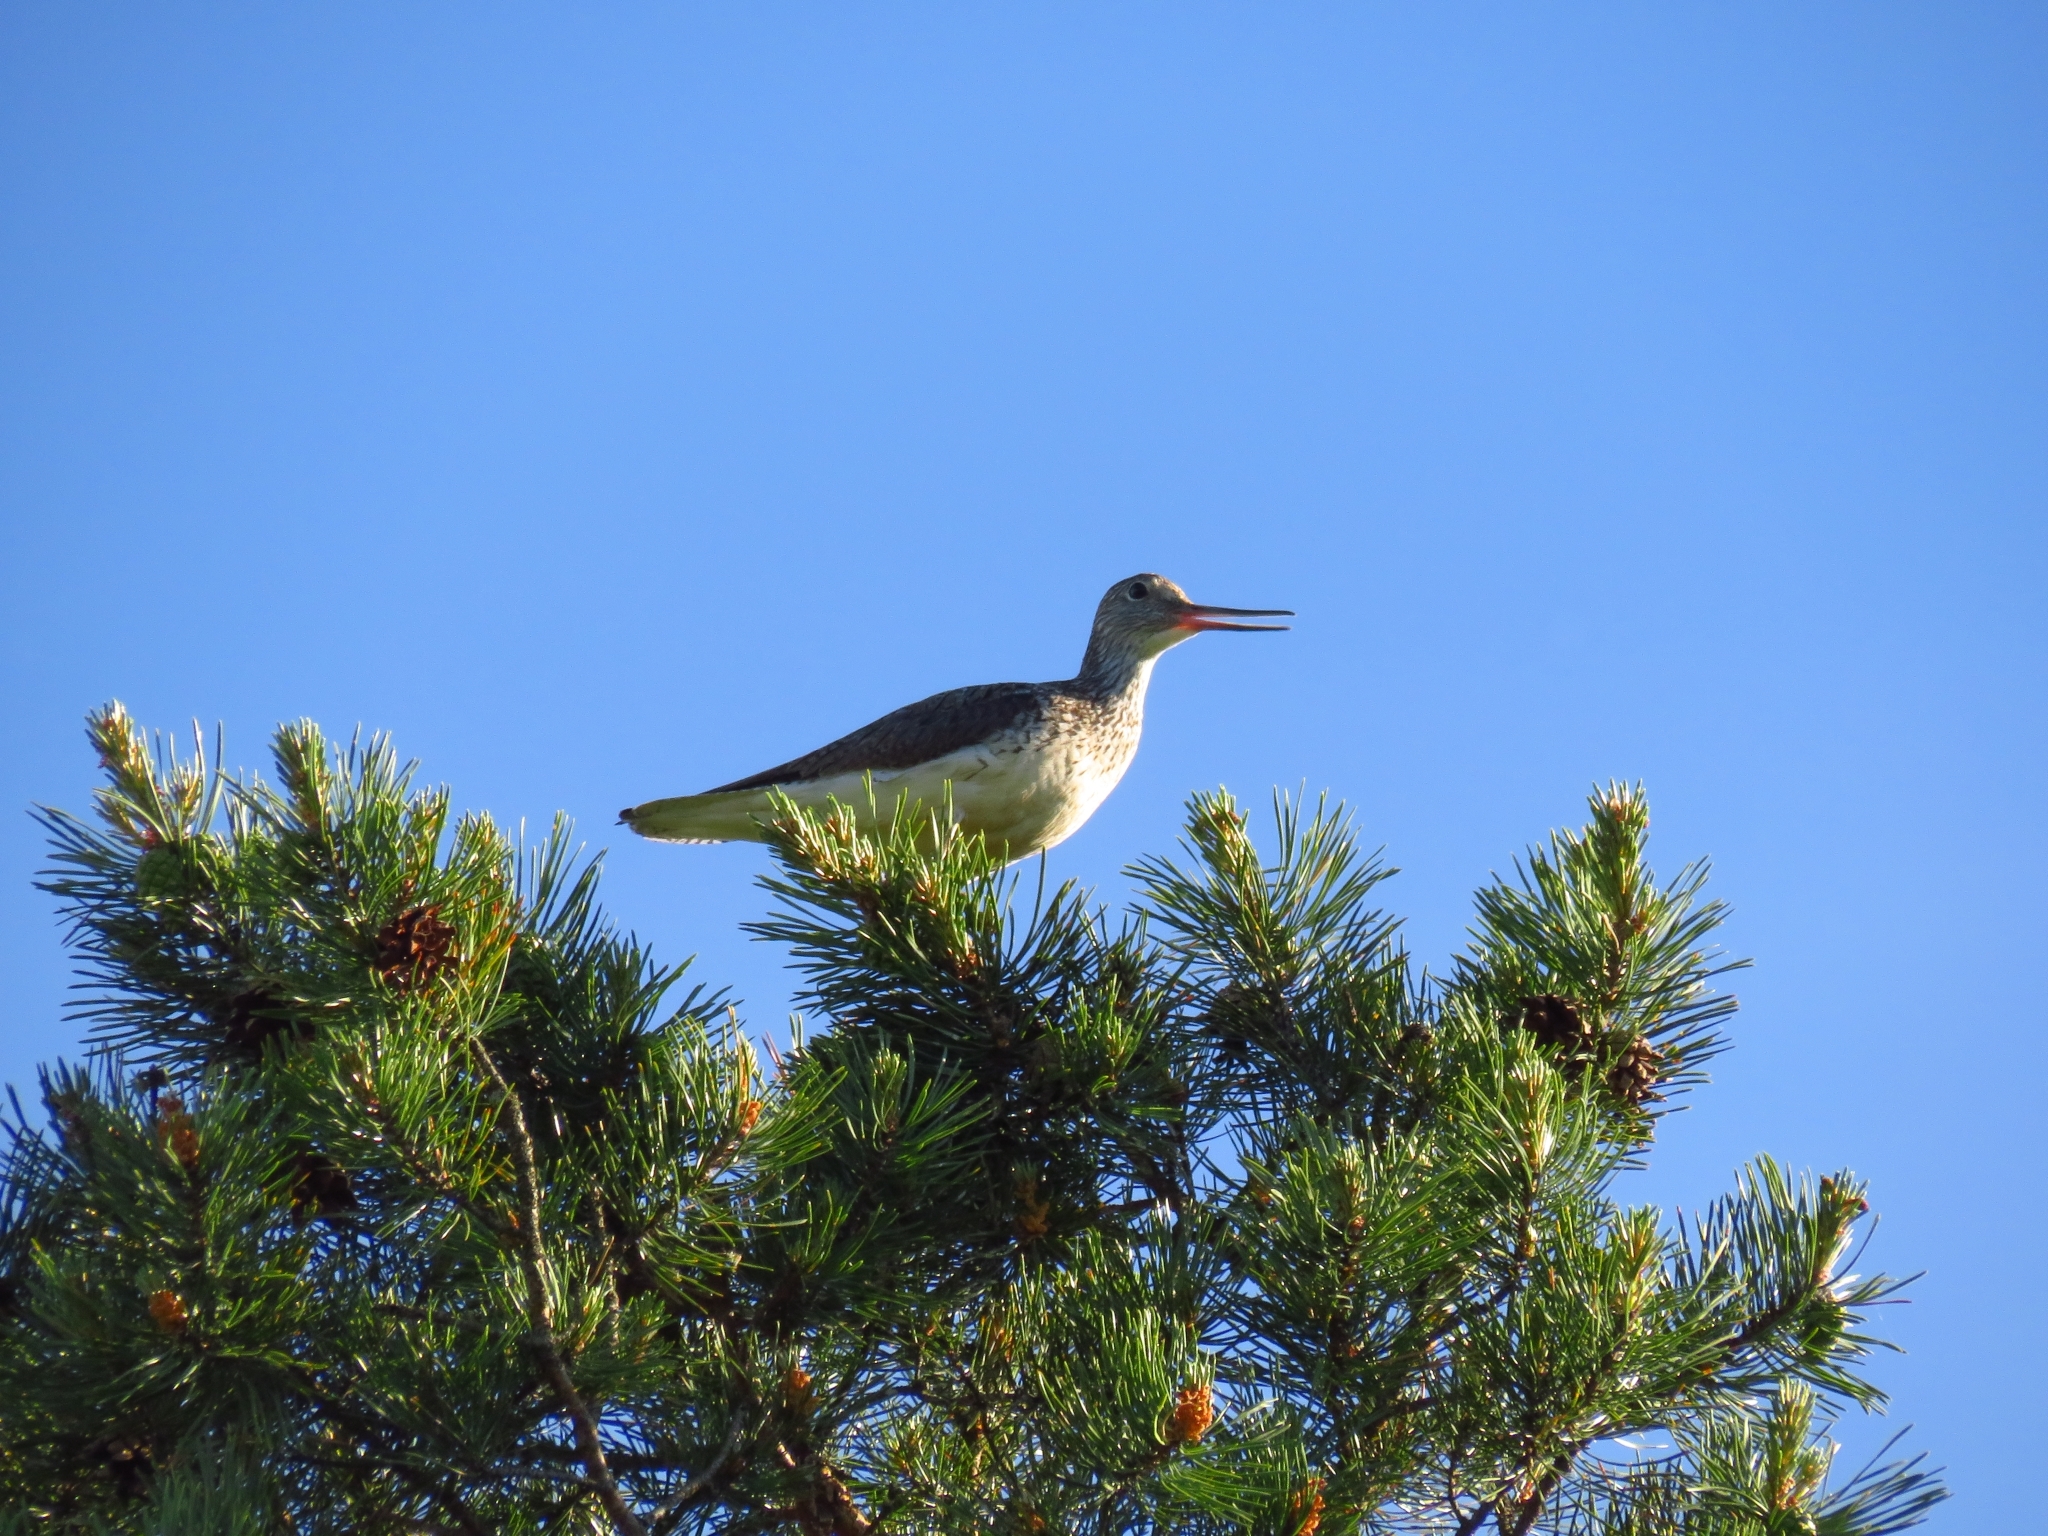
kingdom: Animalia
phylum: Chordata
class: Aves
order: Charadriiformes
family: Scolopacidae
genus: Tringa
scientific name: Tringa nebularia
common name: Common greenshank
